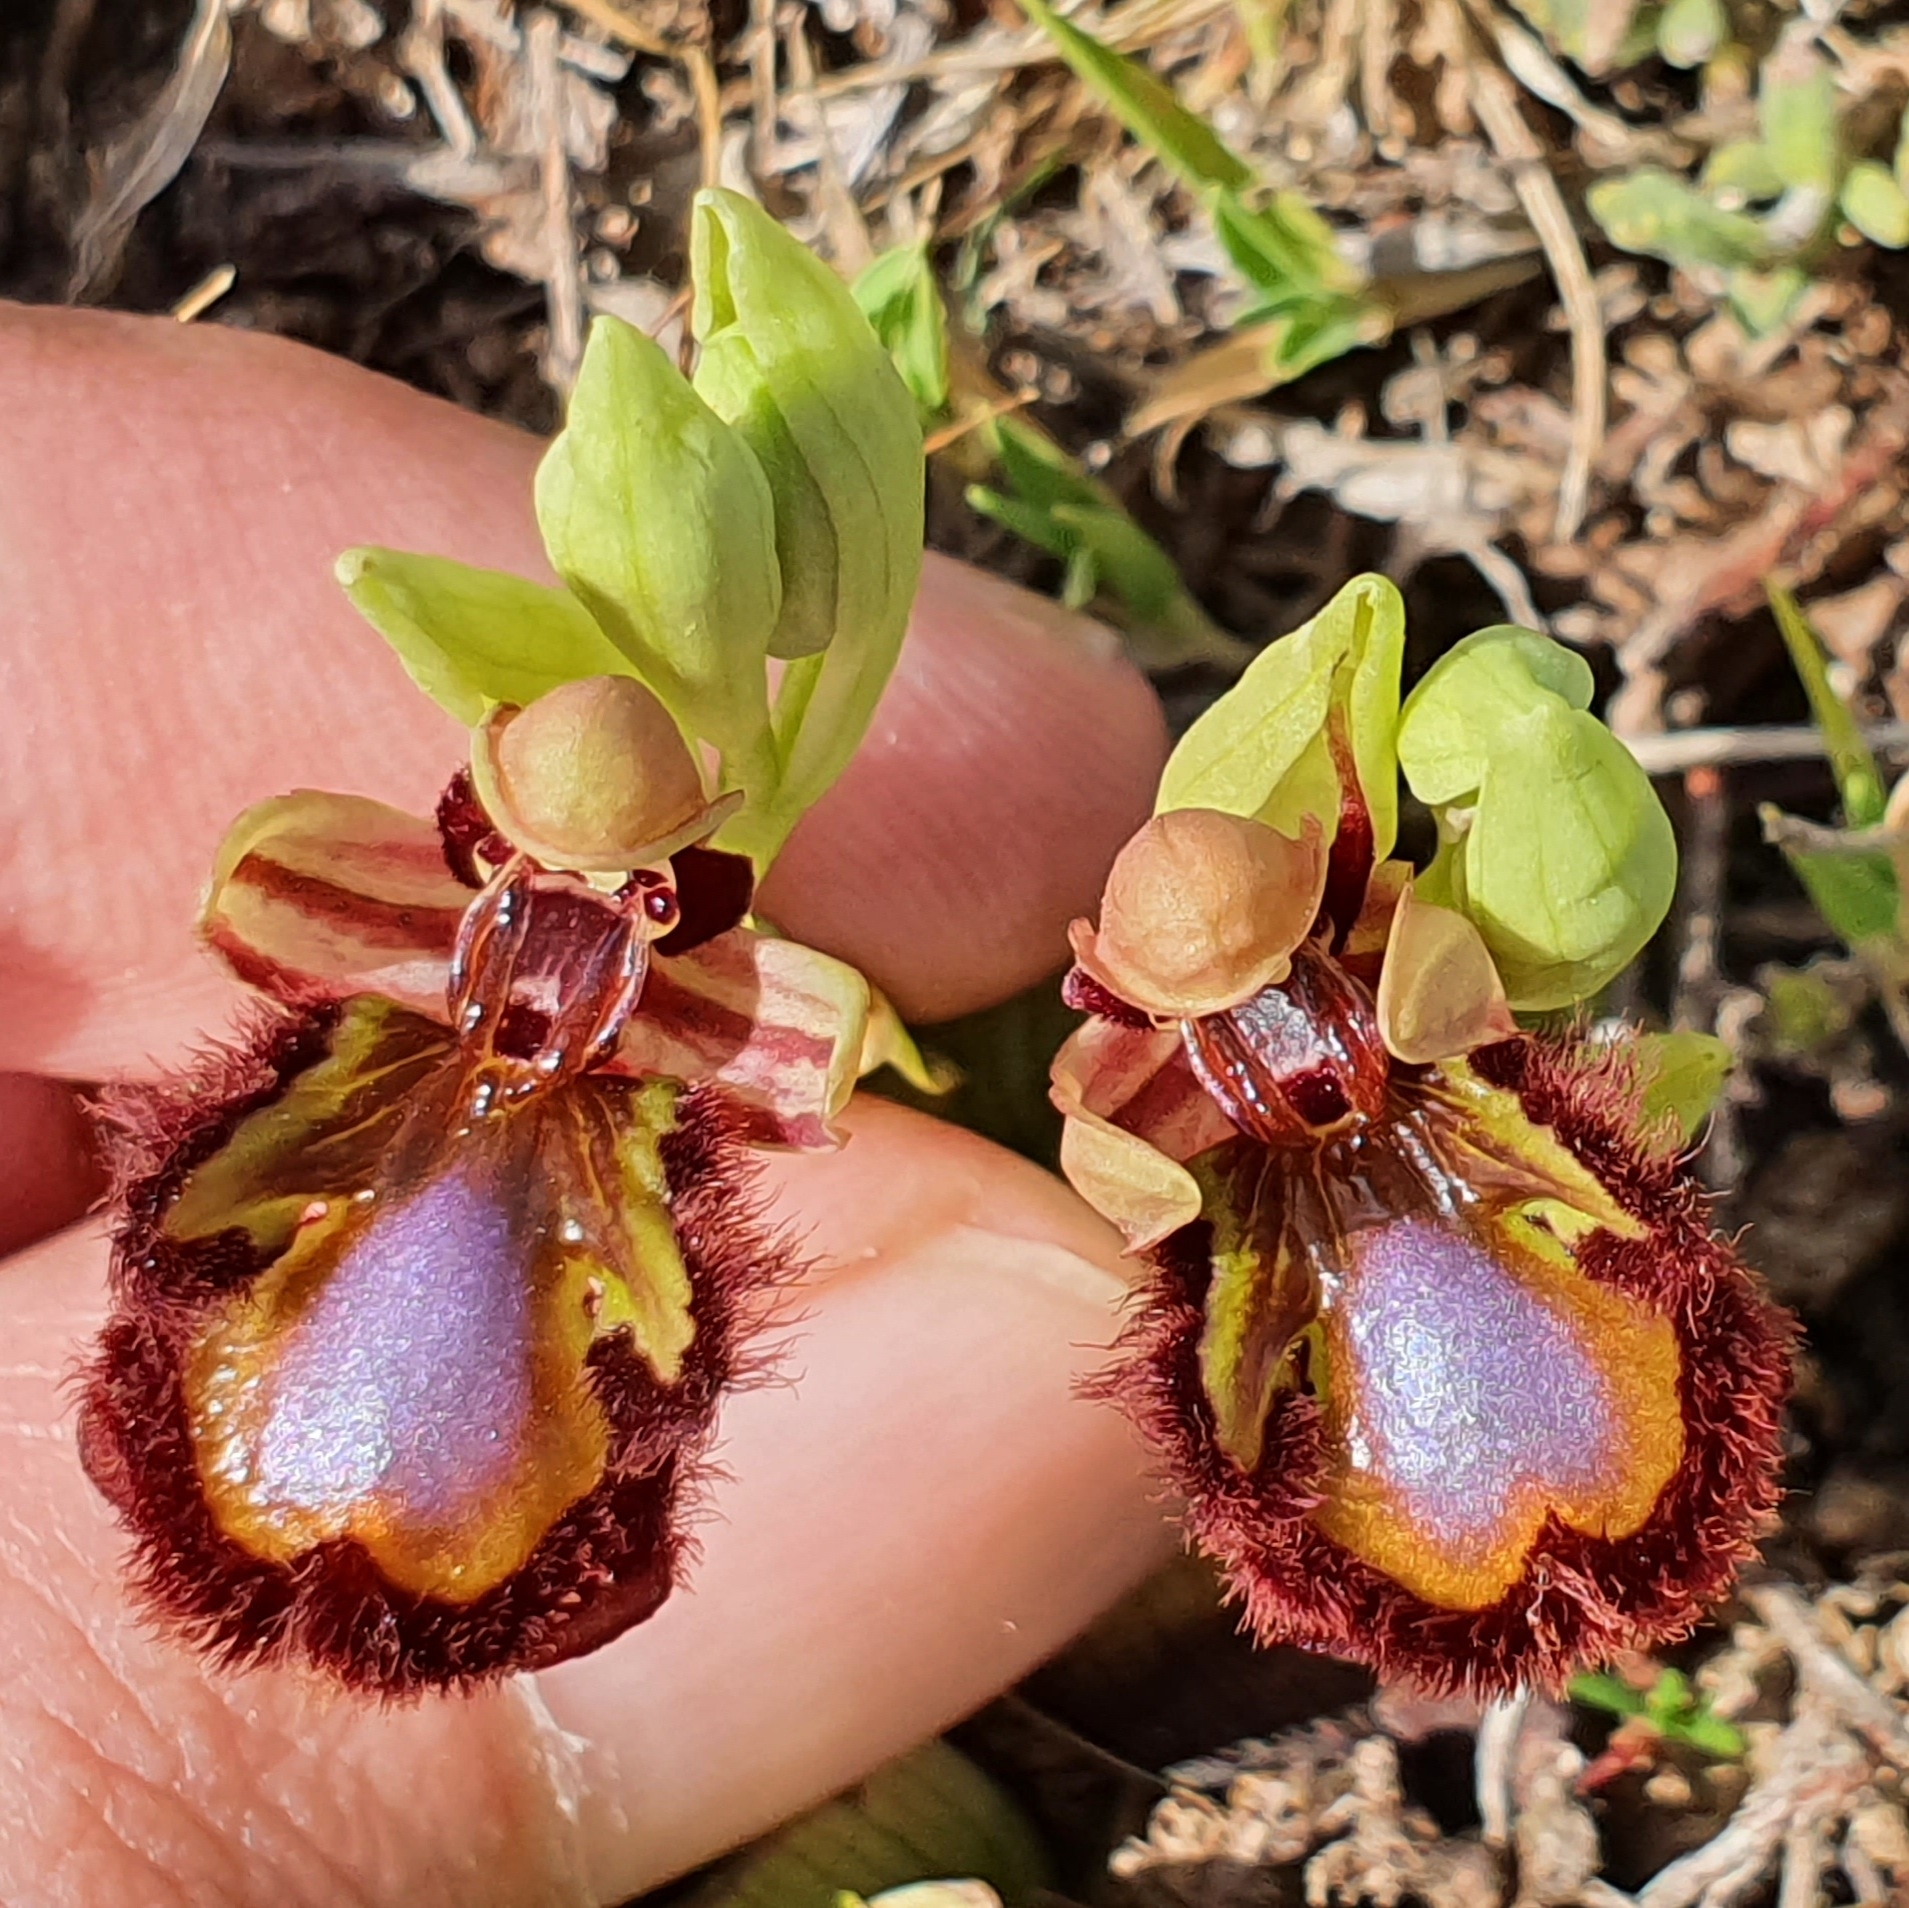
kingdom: Plantae
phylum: Tracheophyta
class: Liliopsida
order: Asparagales
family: Orchidaceae
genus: Ophrys
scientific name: Ophrys speculum
